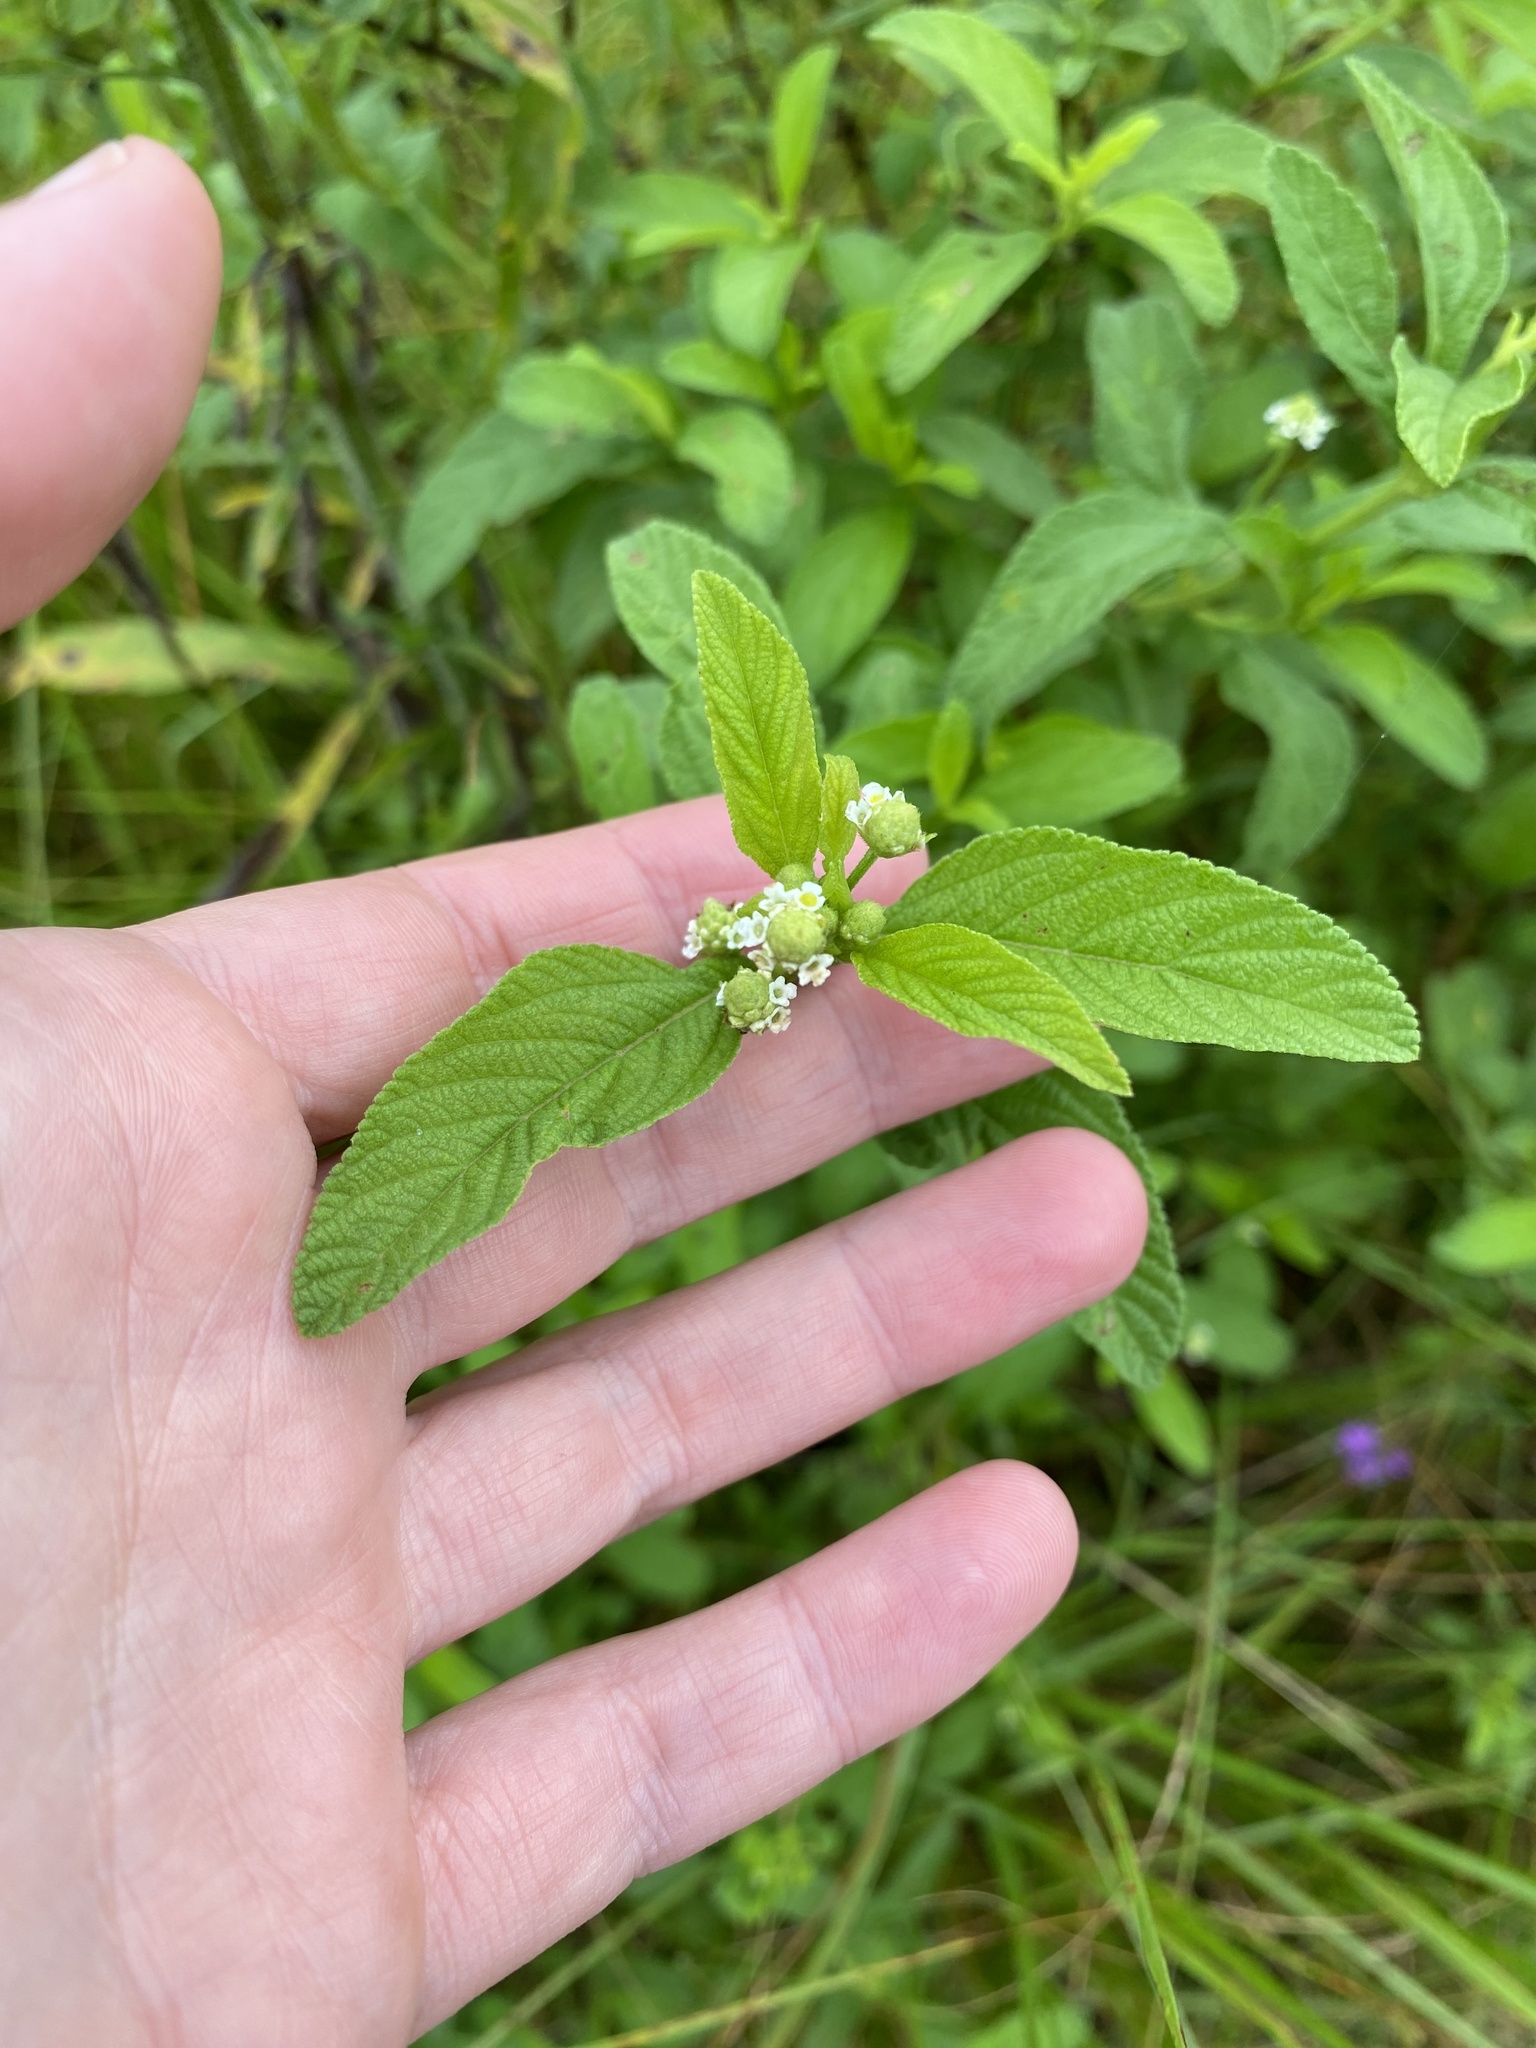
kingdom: Plantae
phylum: Tracheophyta
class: Magnoliopsida
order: Lamiales
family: Verbenaceae
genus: Lippia
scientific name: Lippia javanica
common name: Lemonbush
